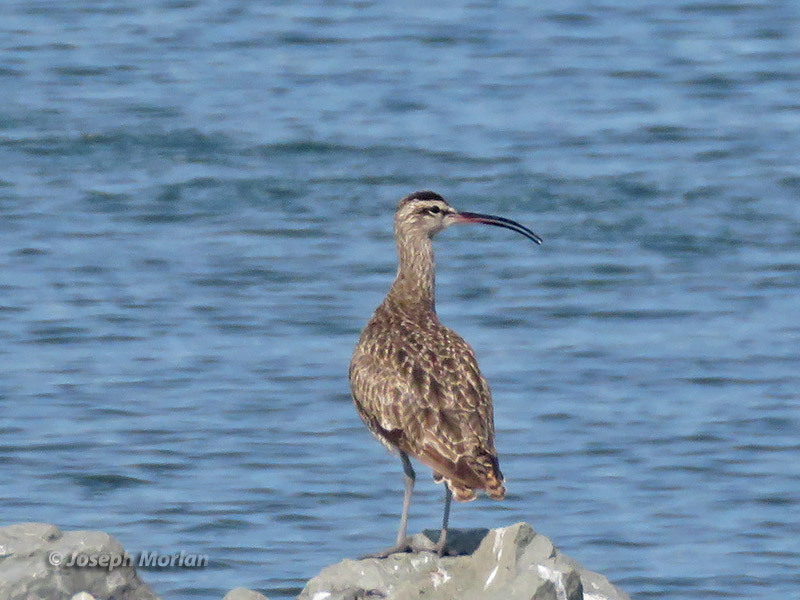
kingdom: Animalia
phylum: Chordata
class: Aves
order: Charadriiformes
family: Scolopacidae
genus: Numenius
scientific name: Numenius phaeopus
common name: Whimbrel
